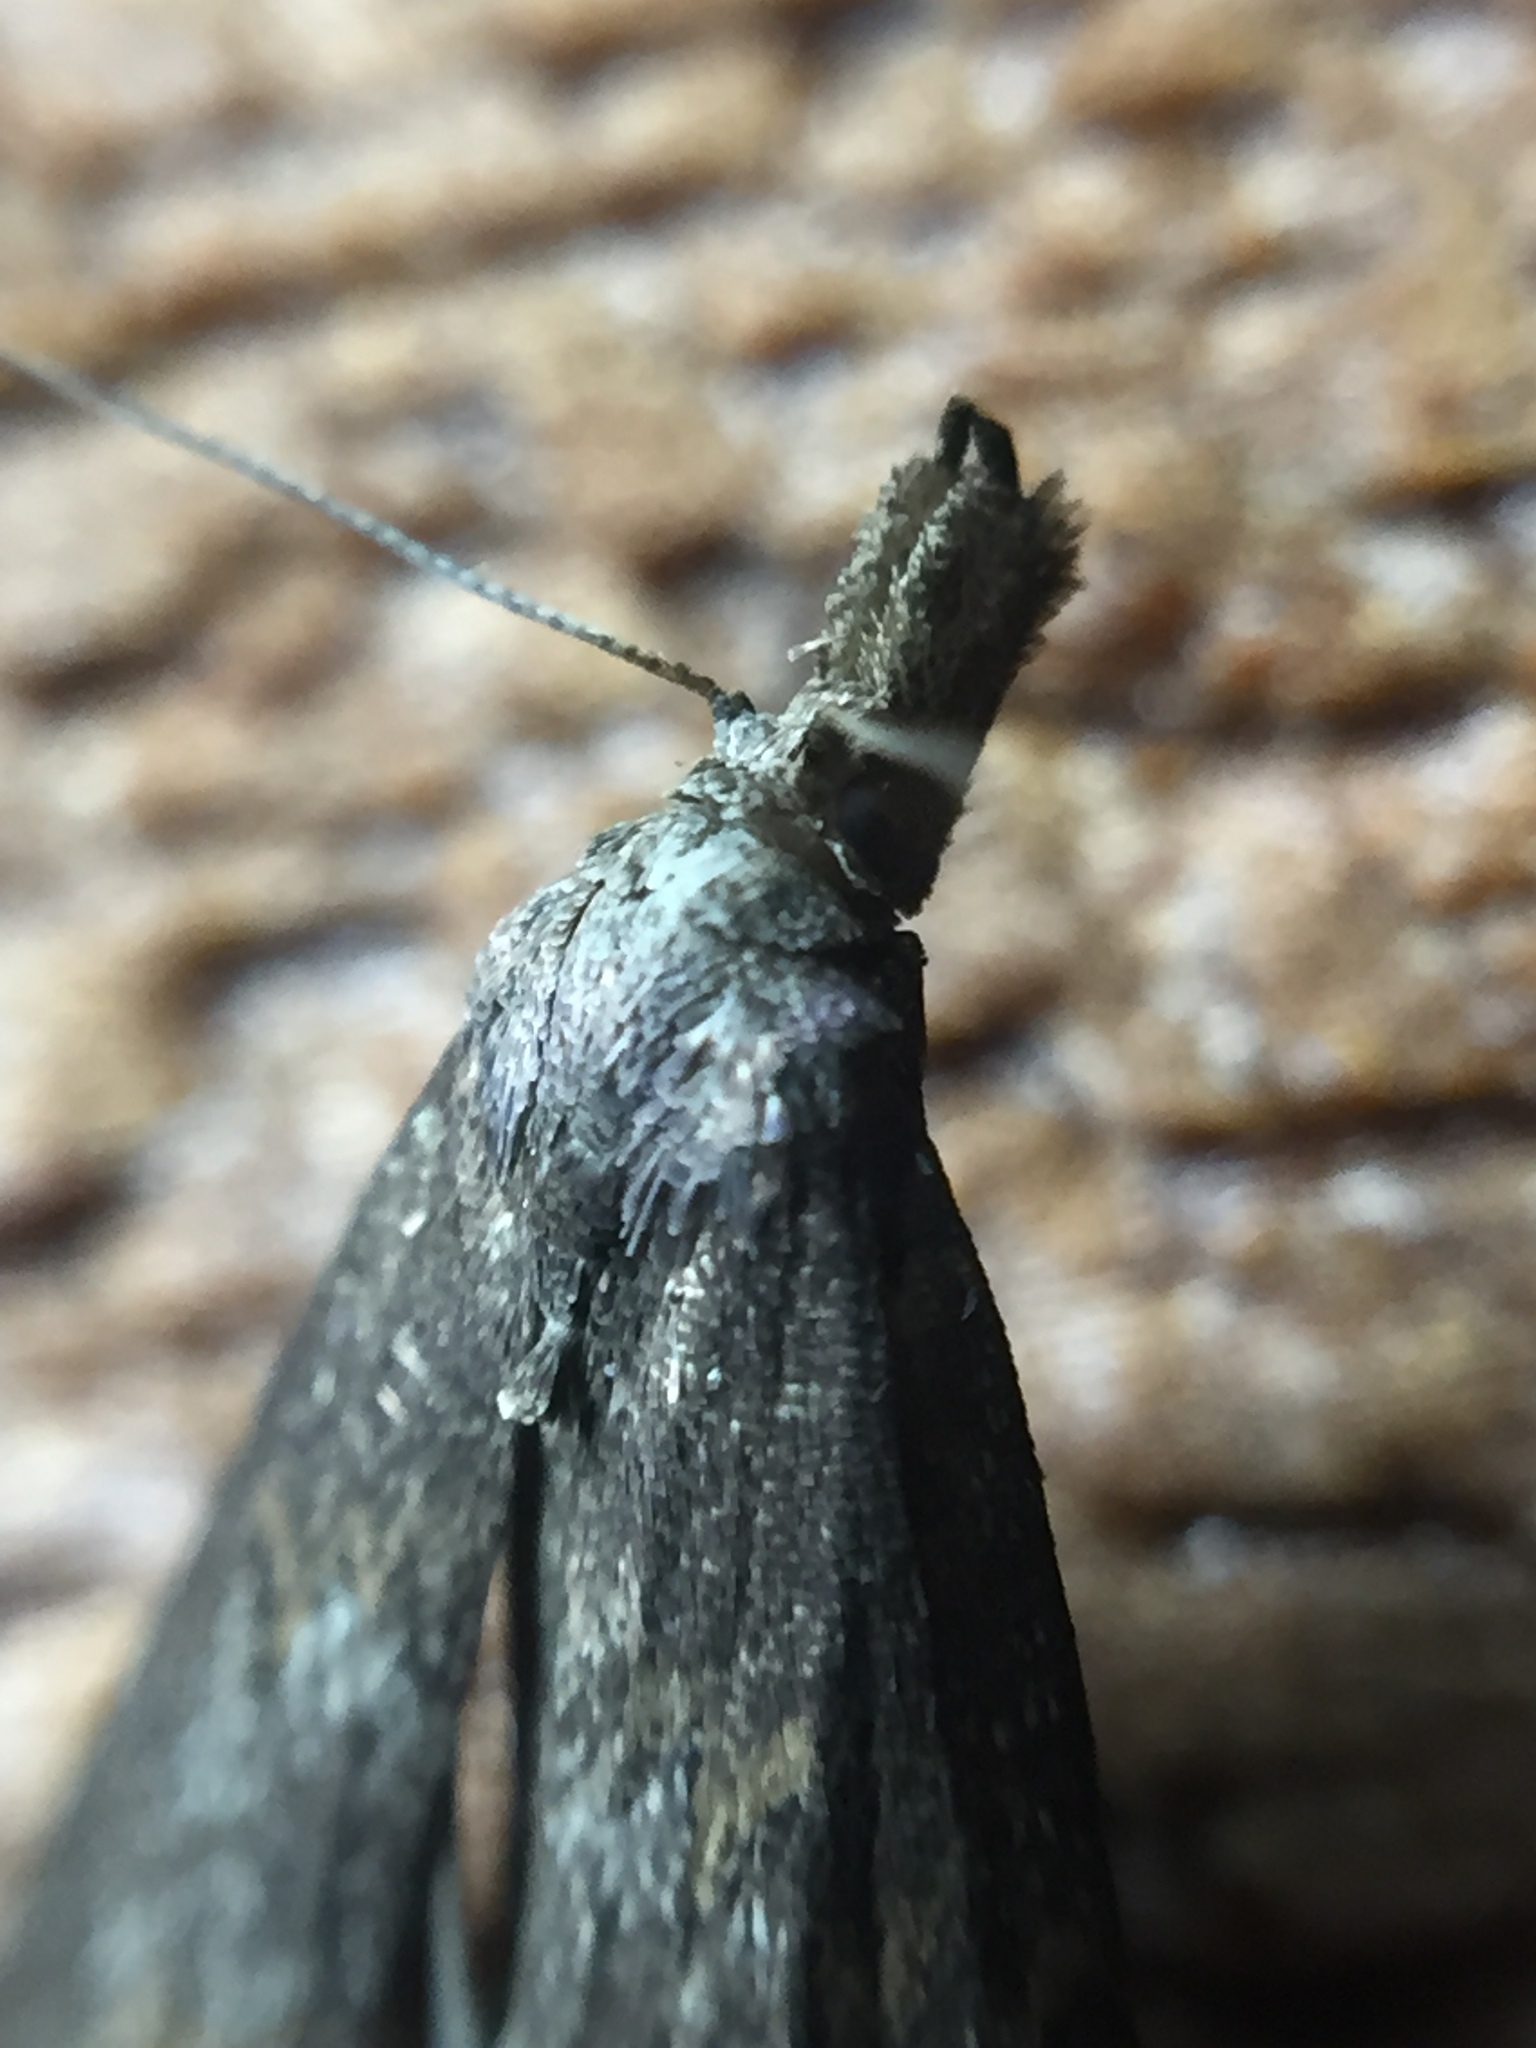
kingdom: Animalia
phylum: Arthropoda
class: Insecta
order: Lepidoptera
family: Erebidae
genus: Schrankia
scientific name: Schrankia costaestrigalis
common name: Pinion-streaked snout
